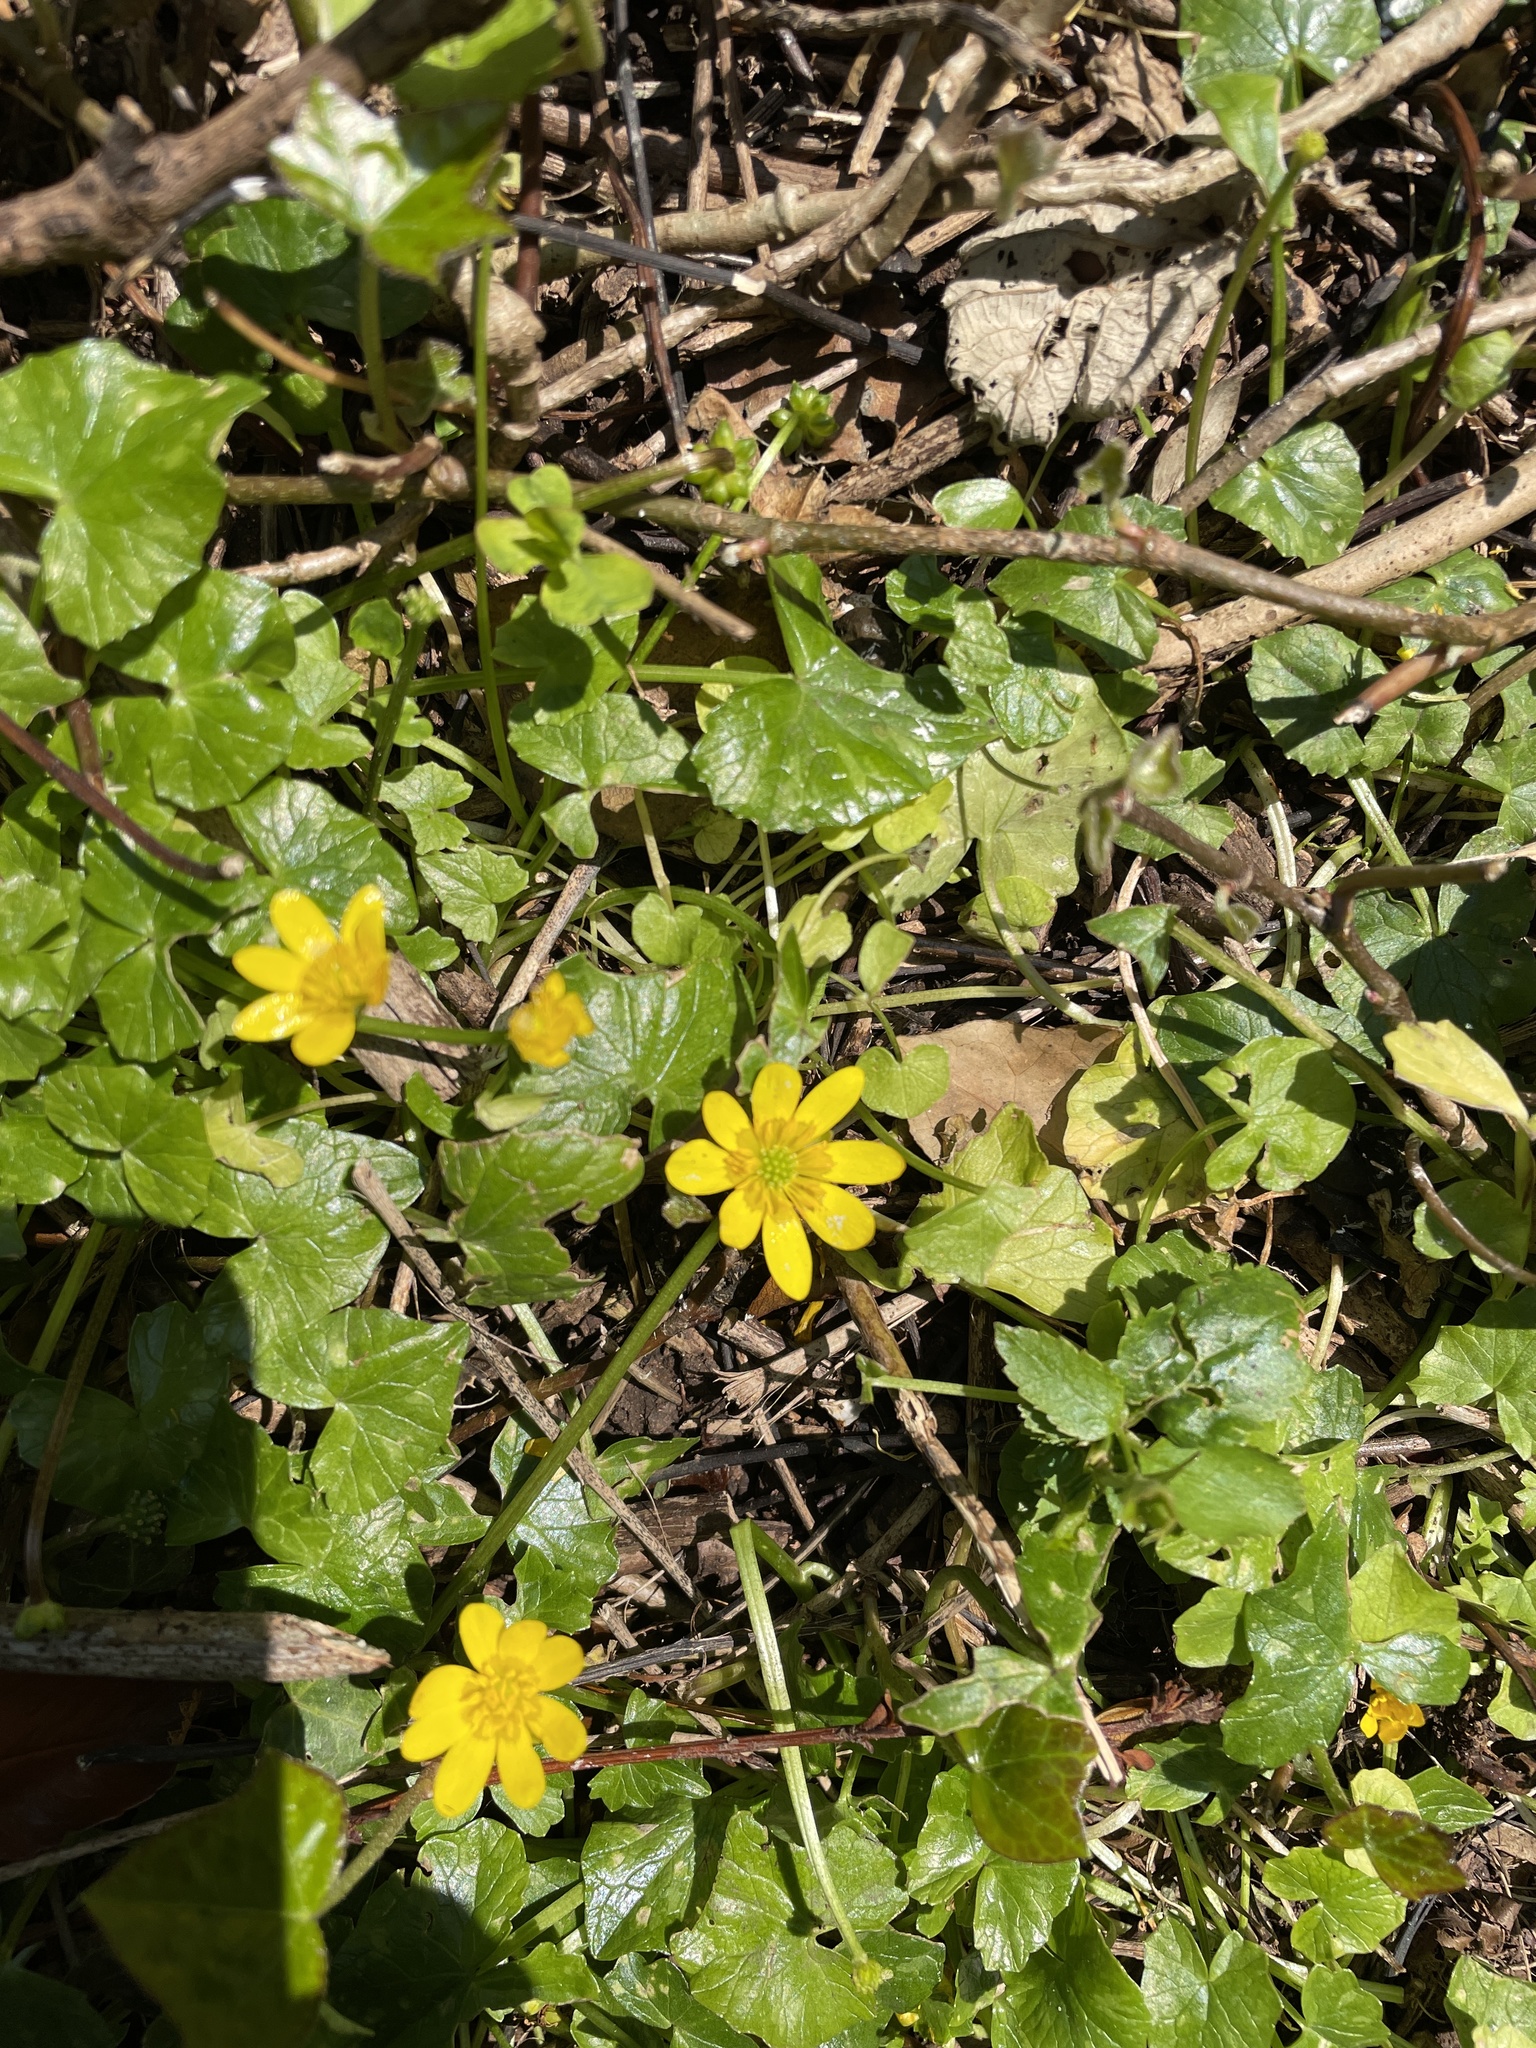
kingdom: Plantae
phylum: Tracheophyta
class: Magnoliopsida
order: Ranunculales
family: Ranunculaceae
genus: Ficaria
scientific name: Ficaria verna
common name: Lesser celandine
